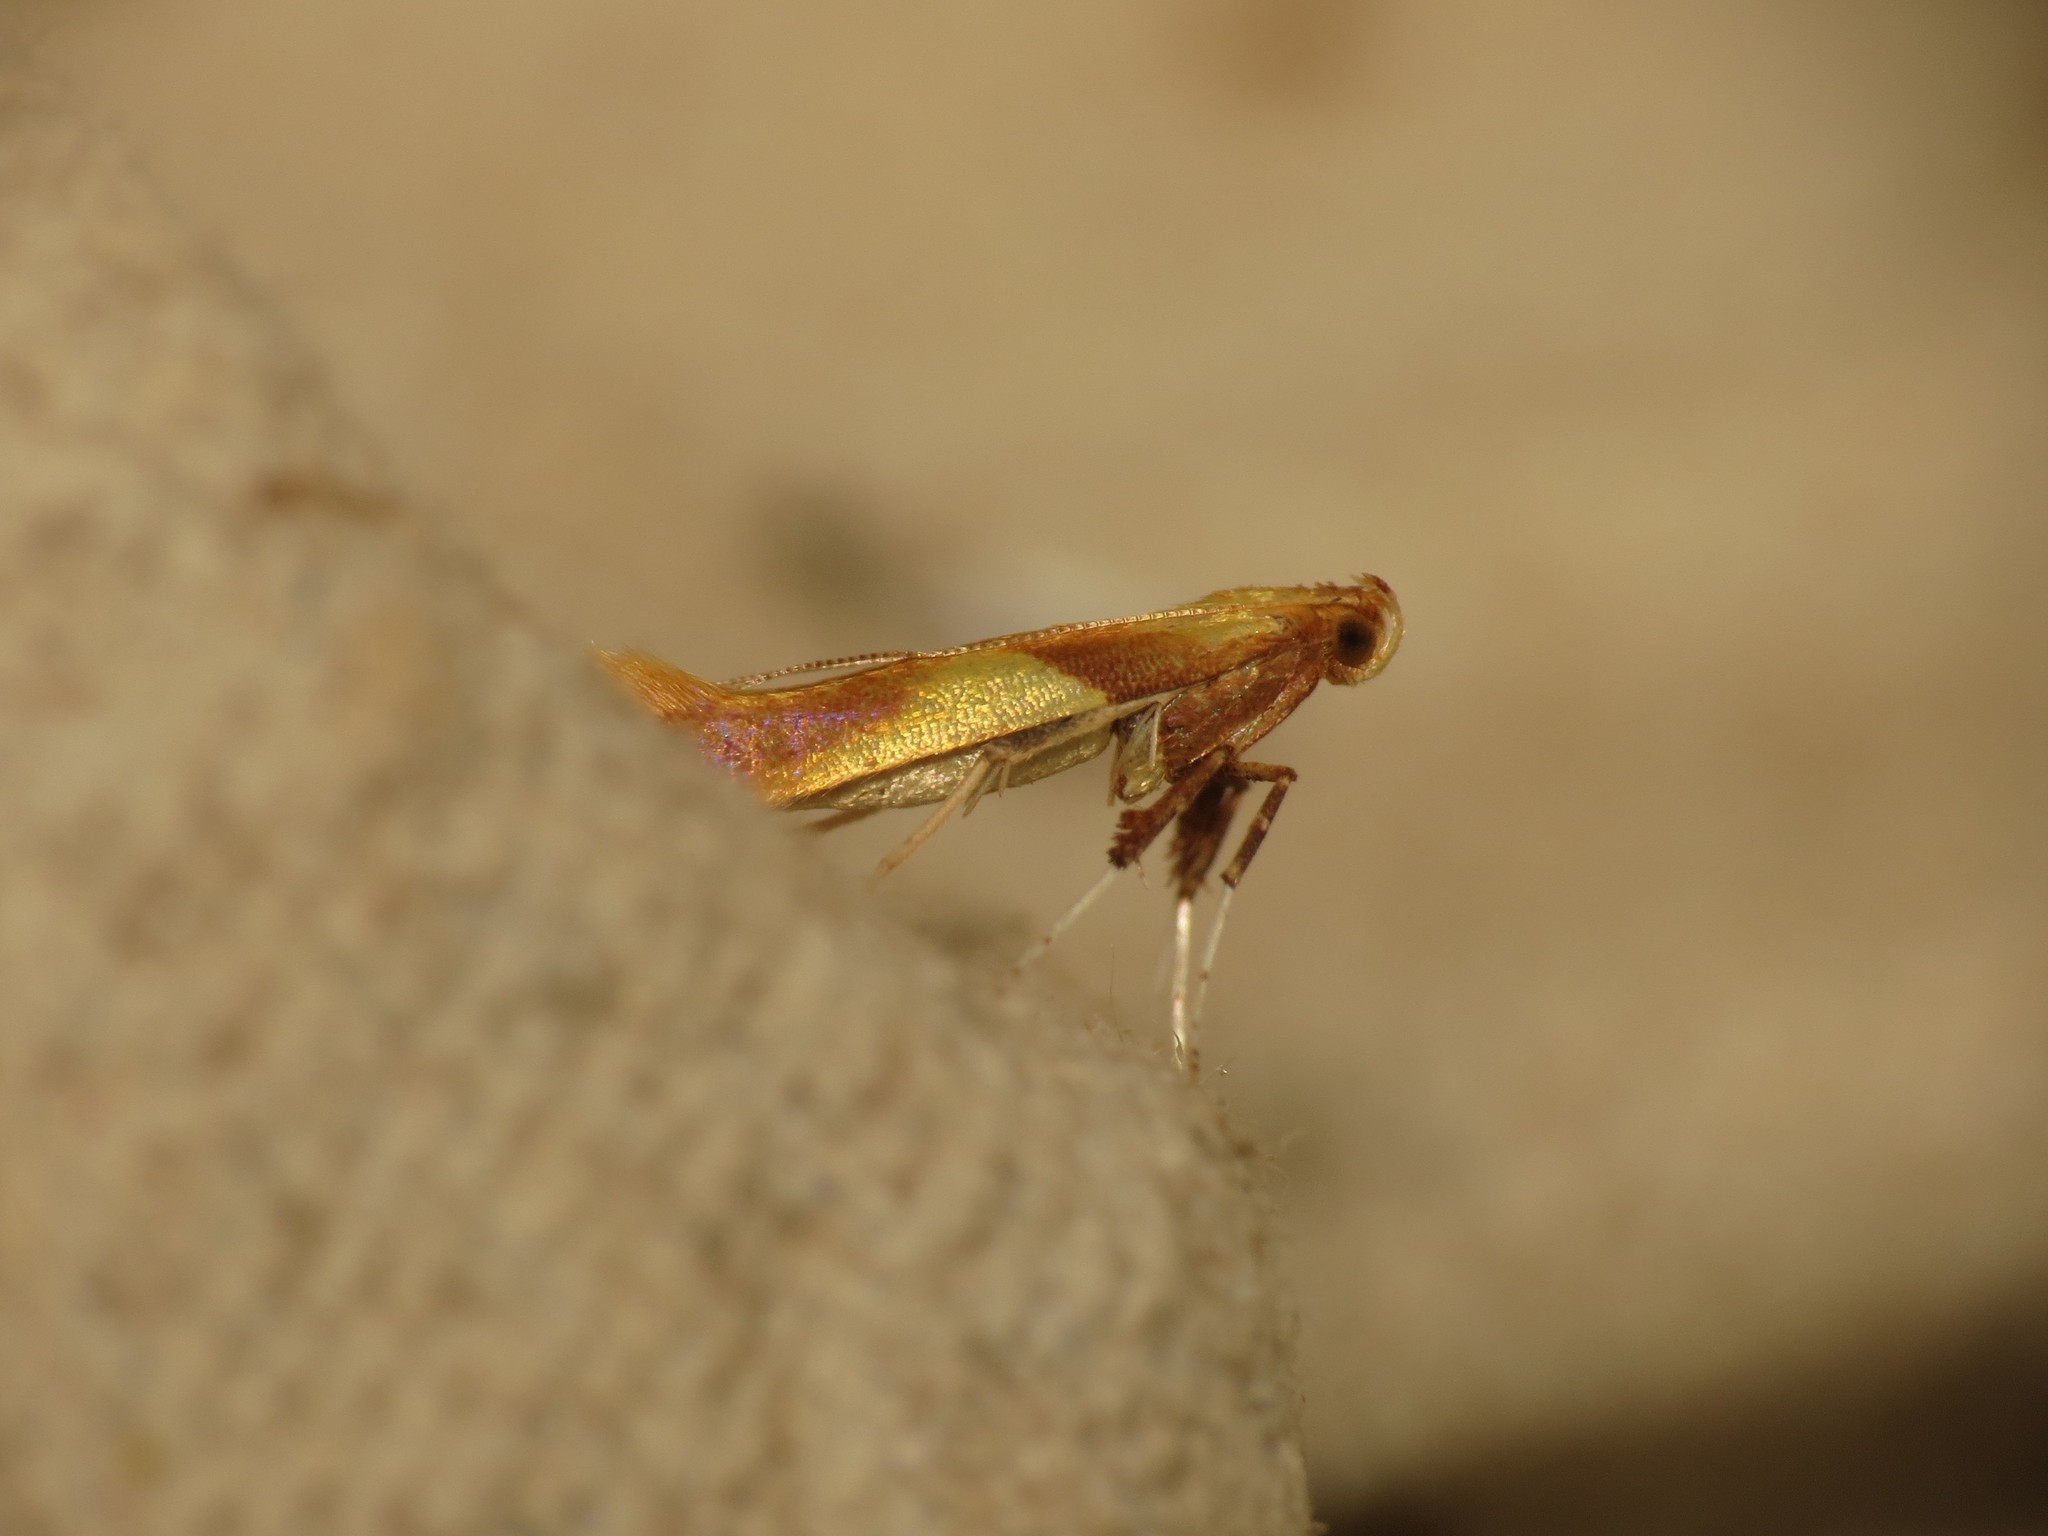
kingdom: Animalia
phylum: Arthropoda
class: Insecta
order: Lepidoptera
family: Gracillariidae
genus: Caloptilia
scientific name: Caloptilia alchimiella
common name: Yellow-triangle slender
